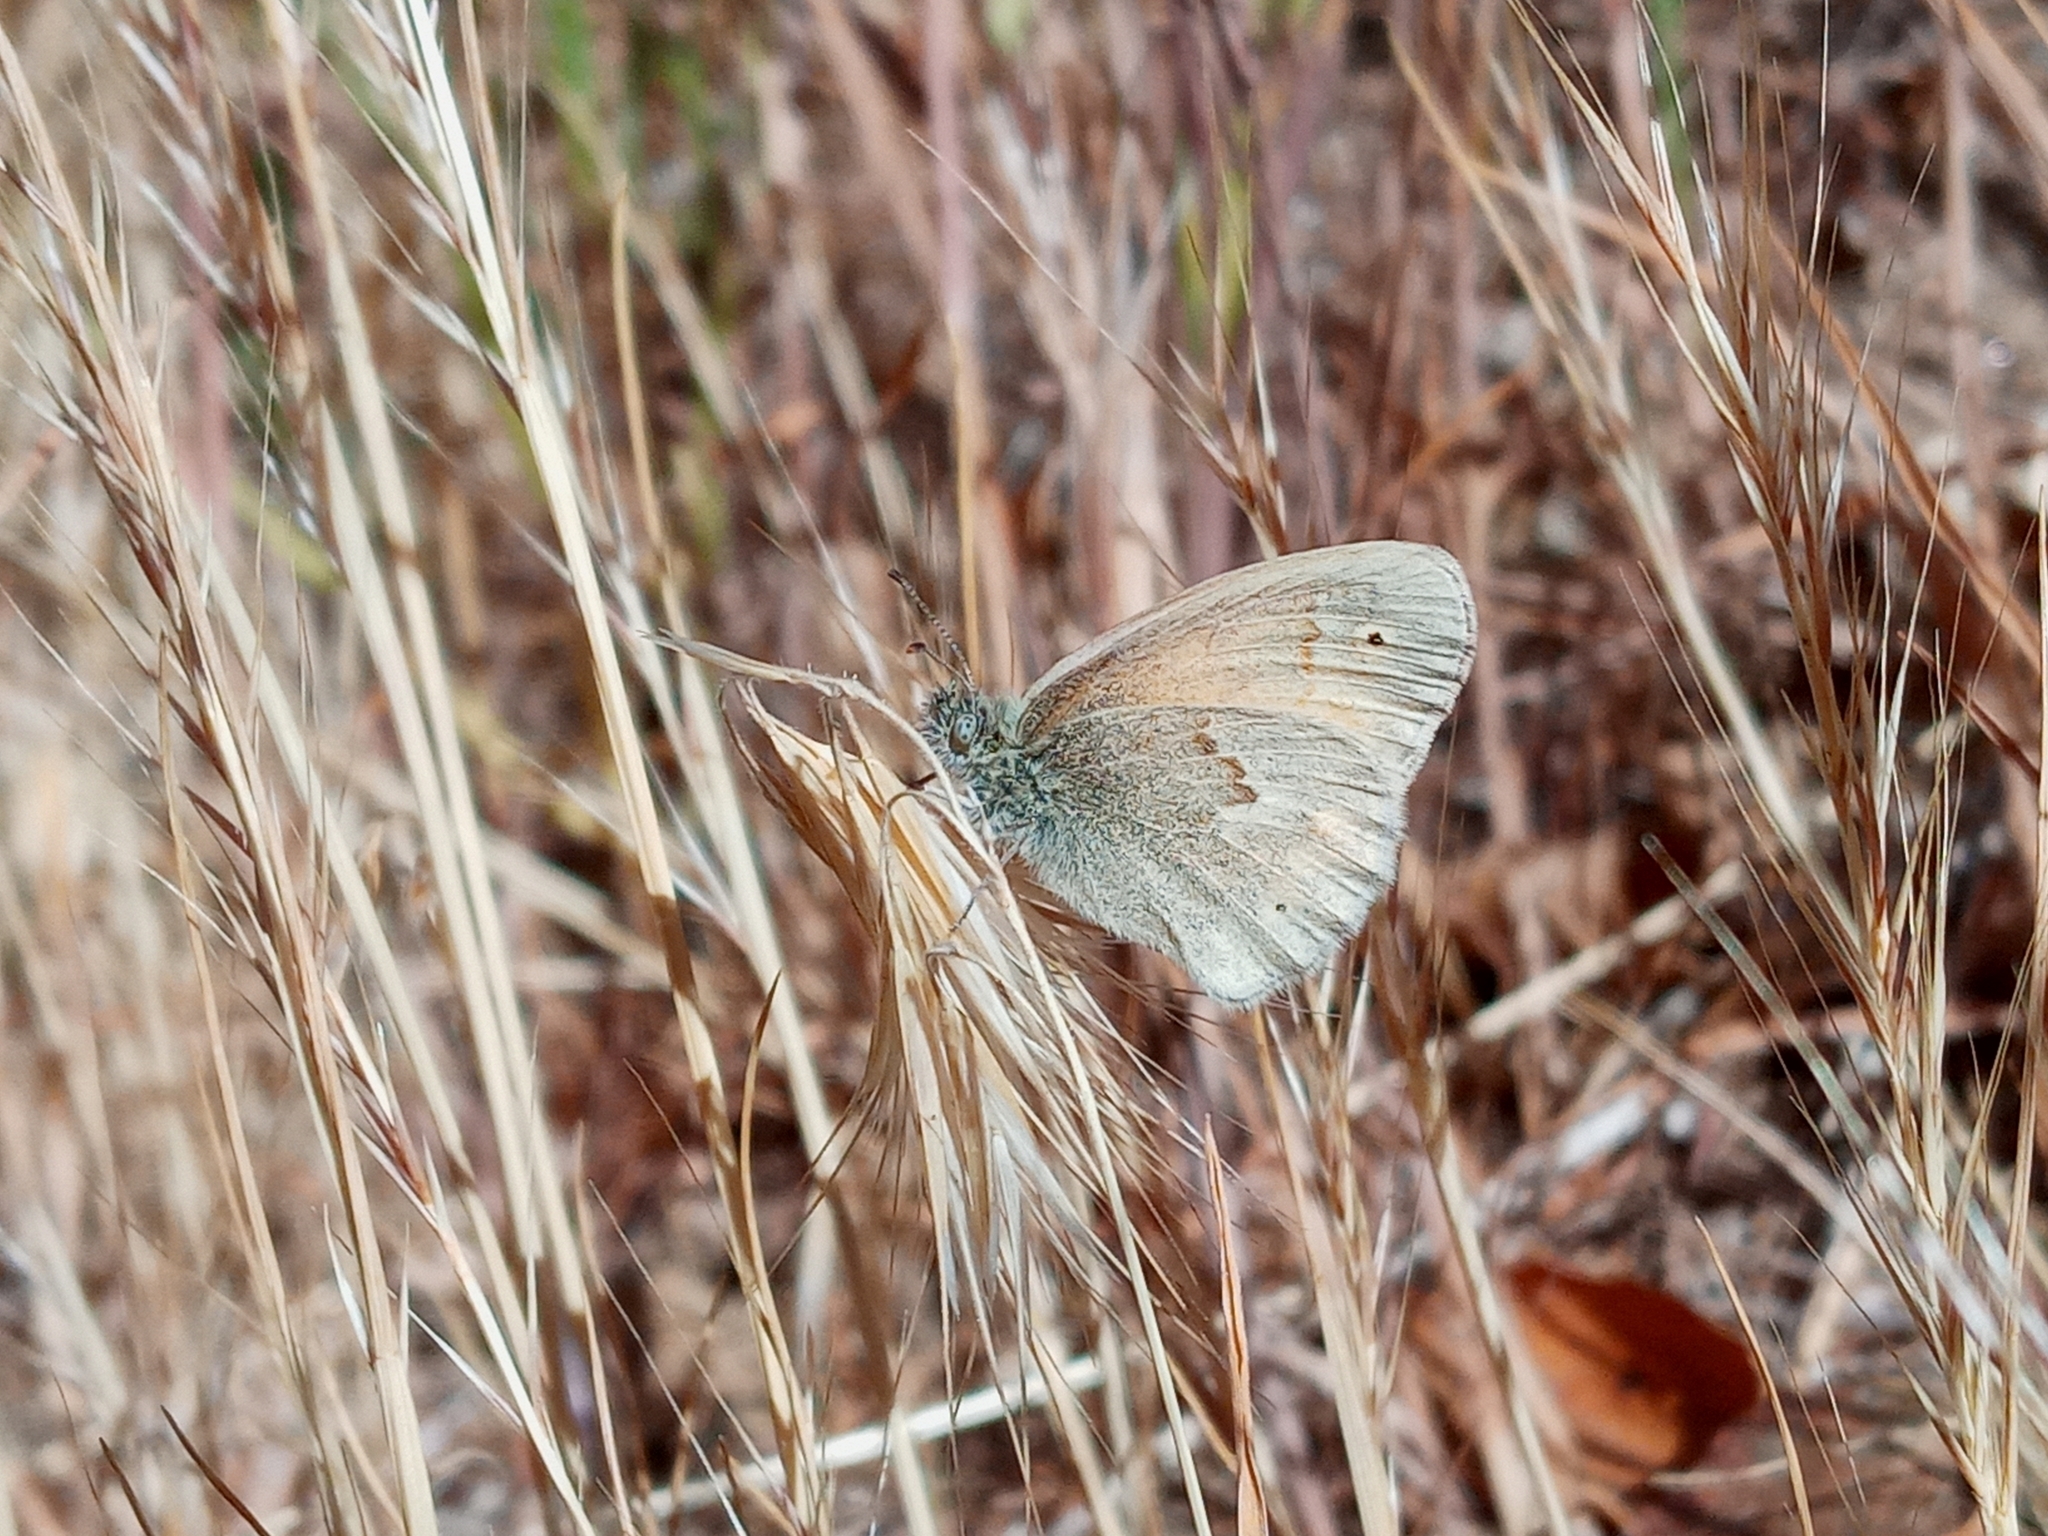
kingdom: Animalia
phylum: Arthropoda
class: Insecta
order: Lepidoptera
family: Nymphalidae
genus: Coenonympha
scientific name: Coenonympha california
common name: Common ringlet
